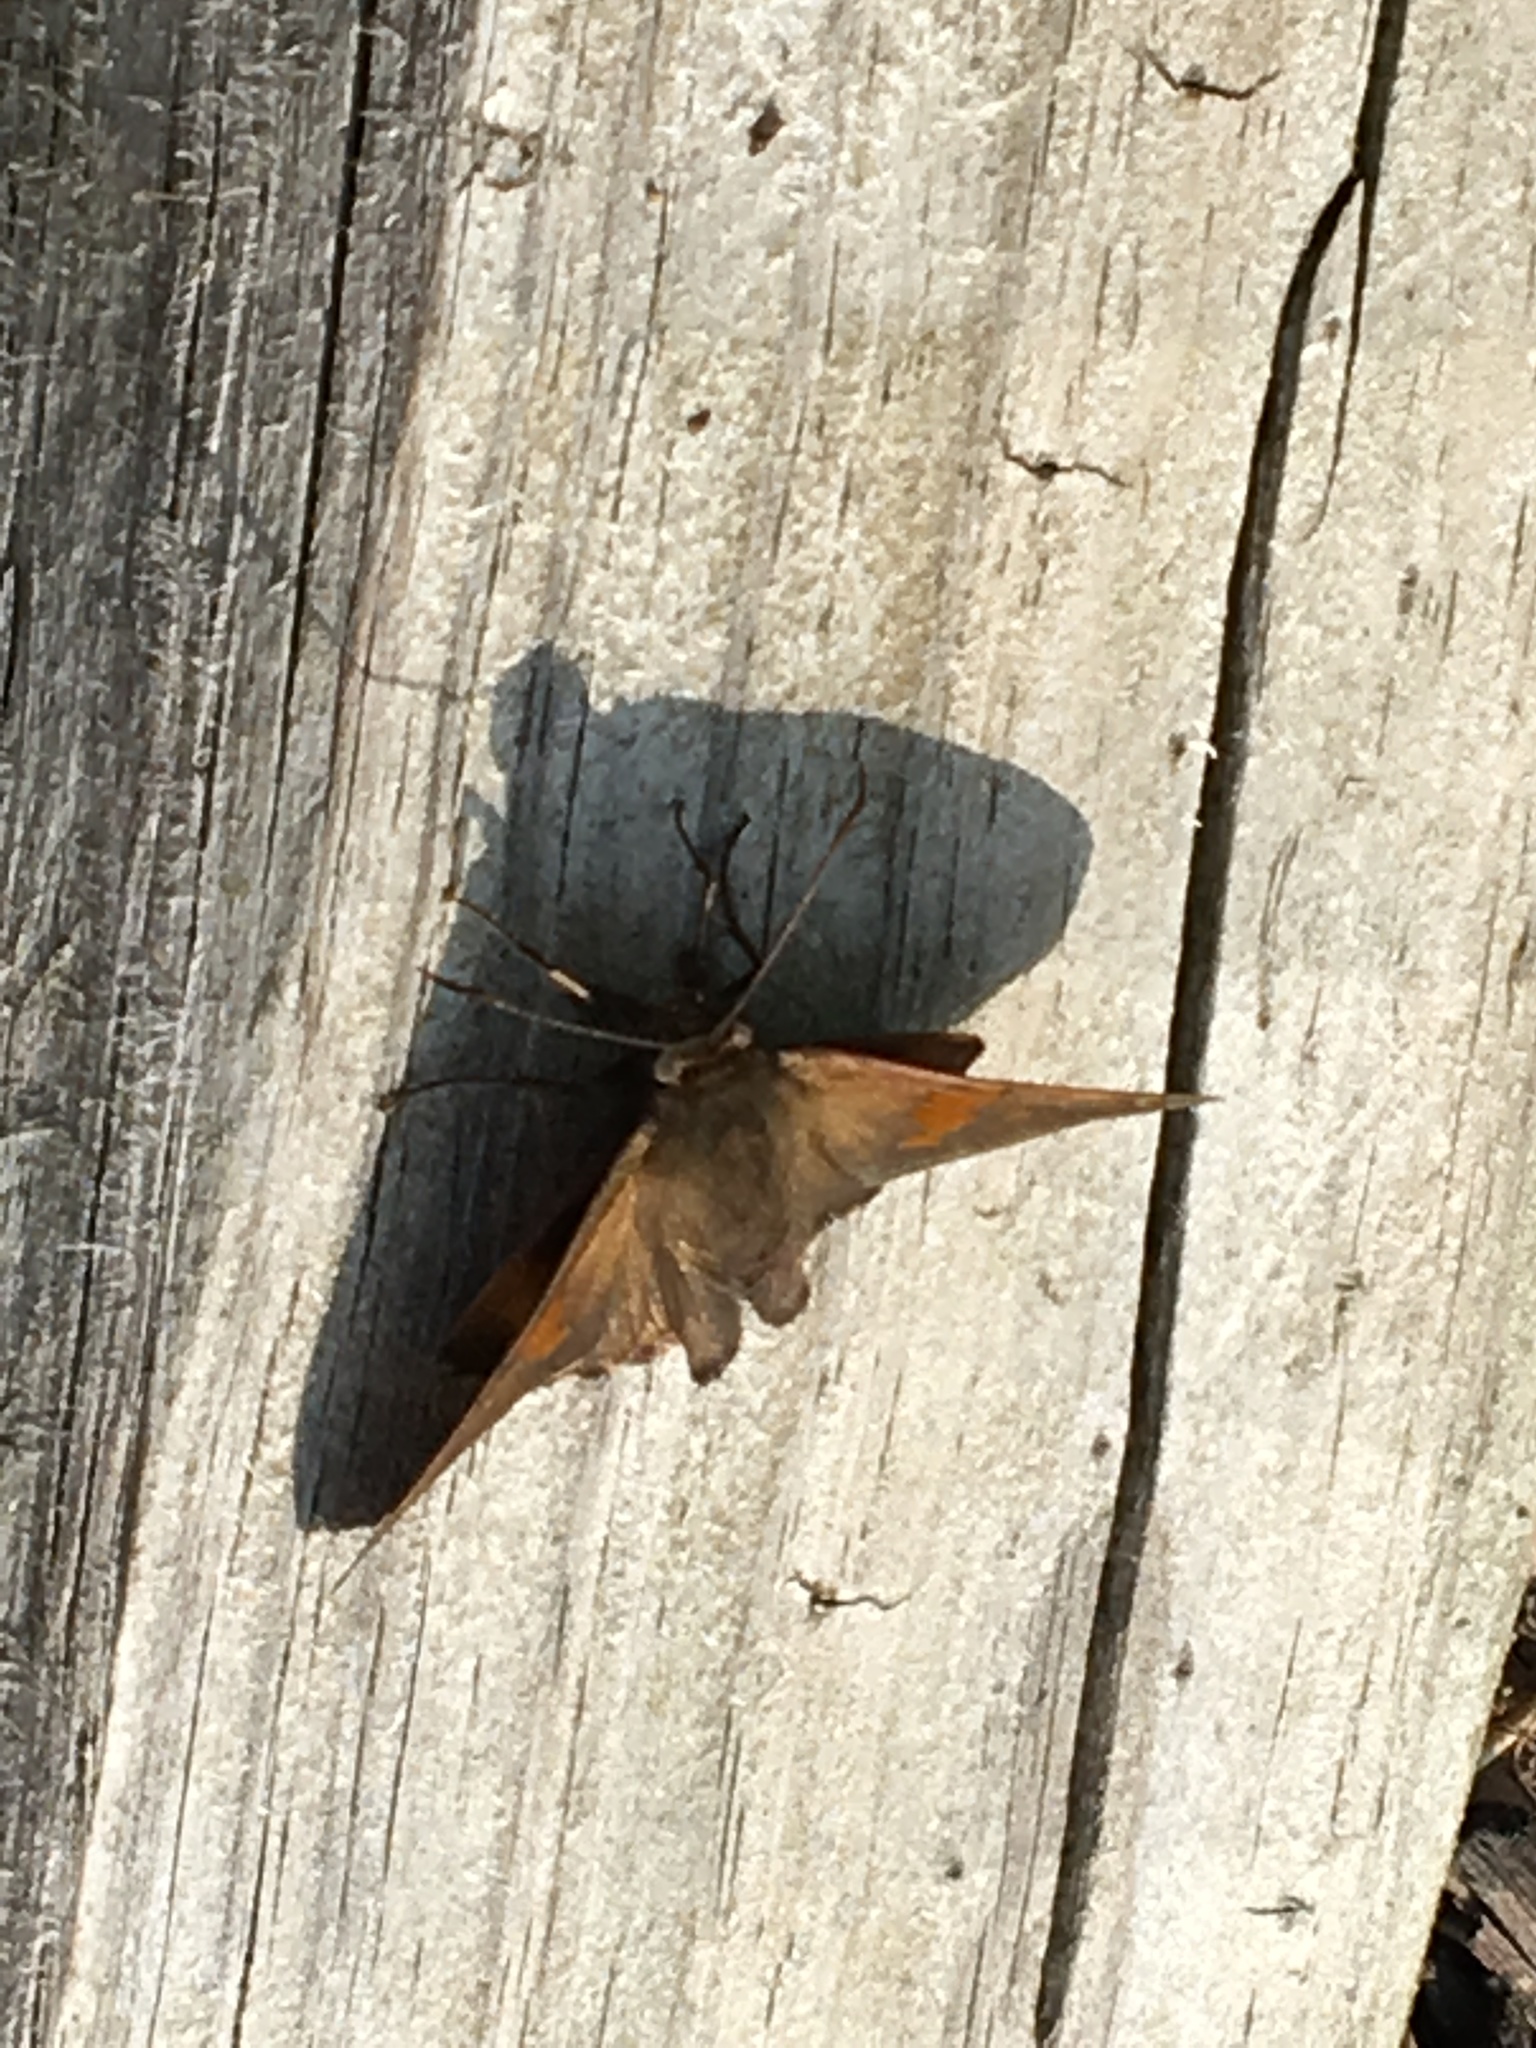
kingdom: Animalia
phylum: Arthropoda
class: Insecta
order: Lepidoptera
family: Hesperiidae
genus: Epargyreus
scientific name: Epargyreus clarus
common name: Silver-spotted skipper
